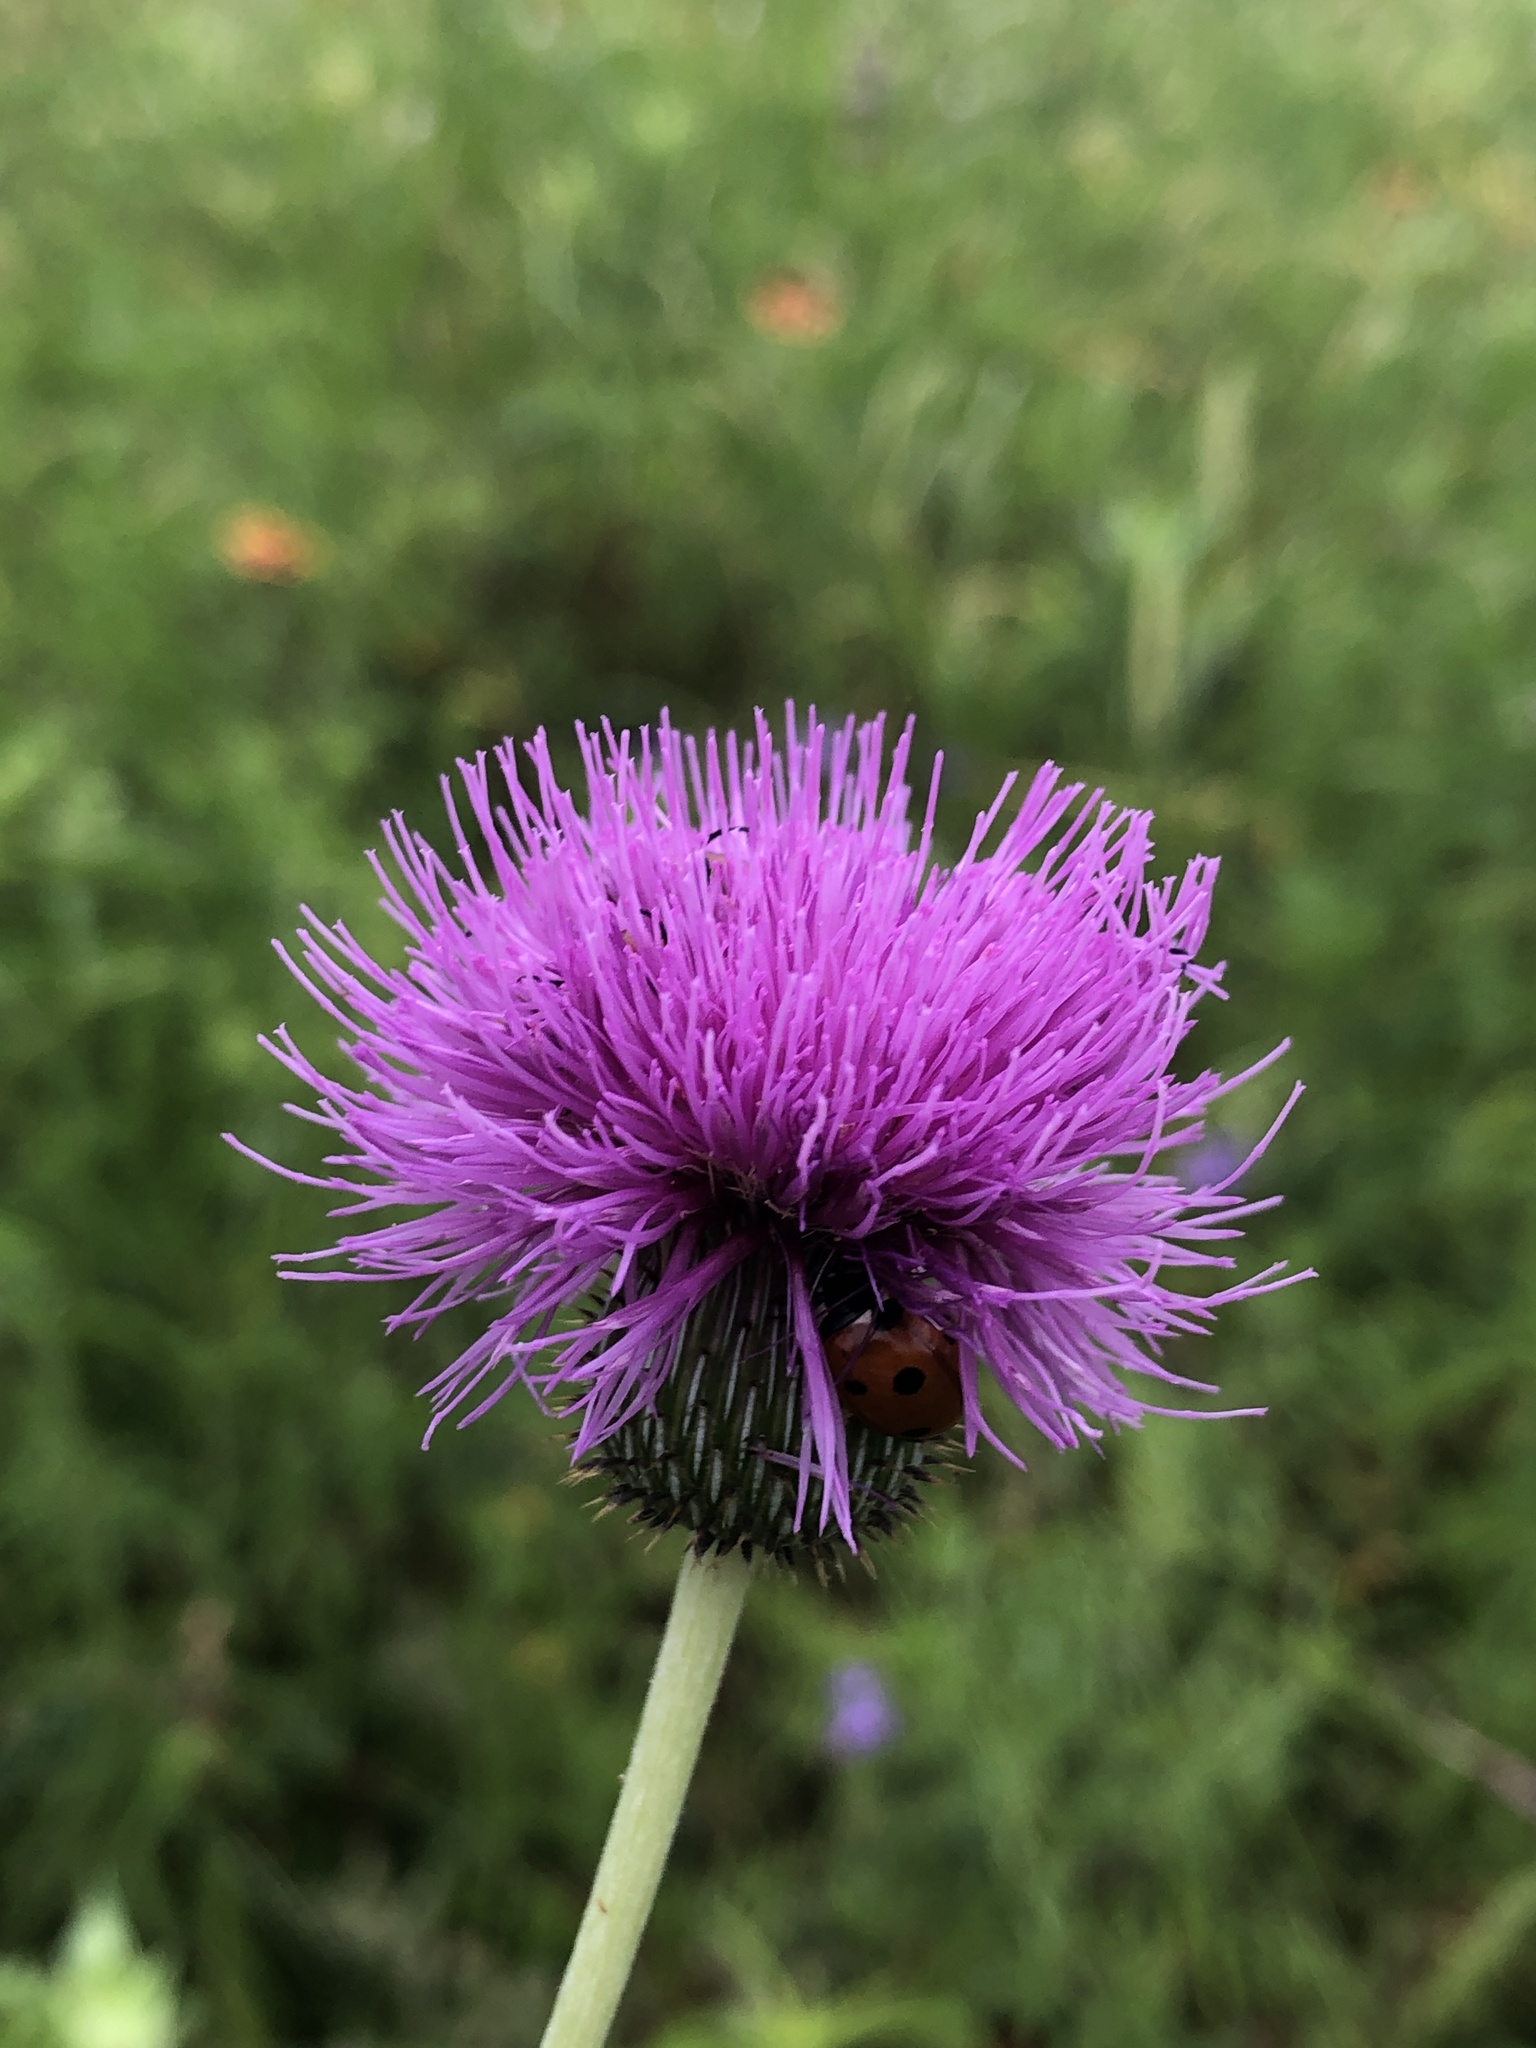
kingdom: Plantae
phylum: Tracheophyta
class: Magnoliopsida
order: Asterales
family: Asteraceae
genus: Cirsium
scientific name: Cirsium texanum
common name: Texas purple thistle
